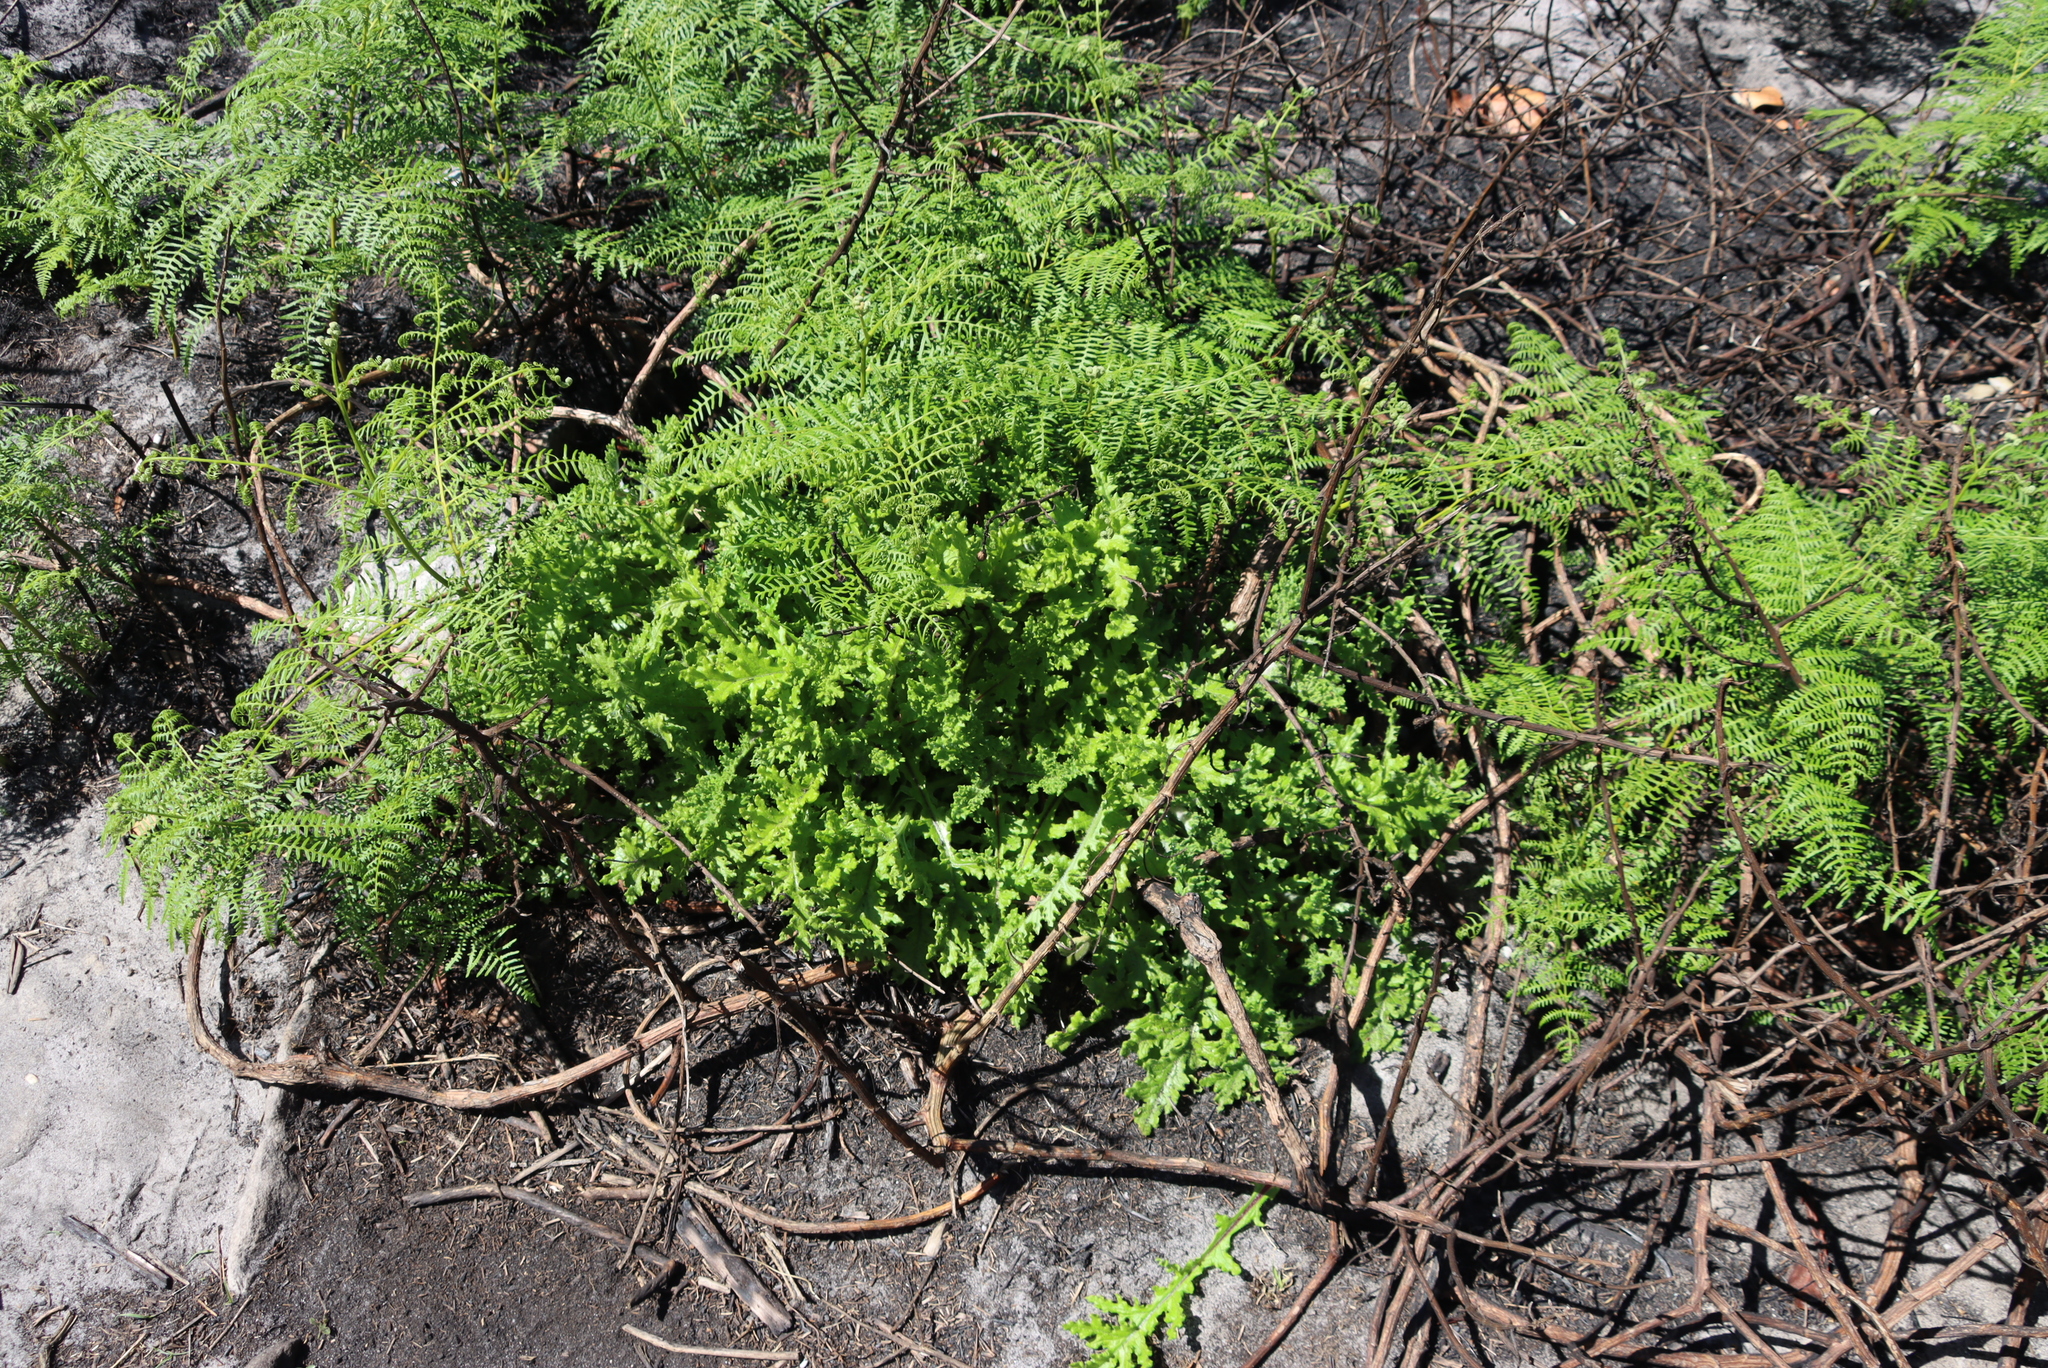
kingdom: Plantae
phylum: Tracheophyta
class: Polypodiopsida
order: Polypodiales
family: Dennstaedtiaceae
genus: Pteridium
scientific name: Pteridium aquilinum
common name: Bracken
